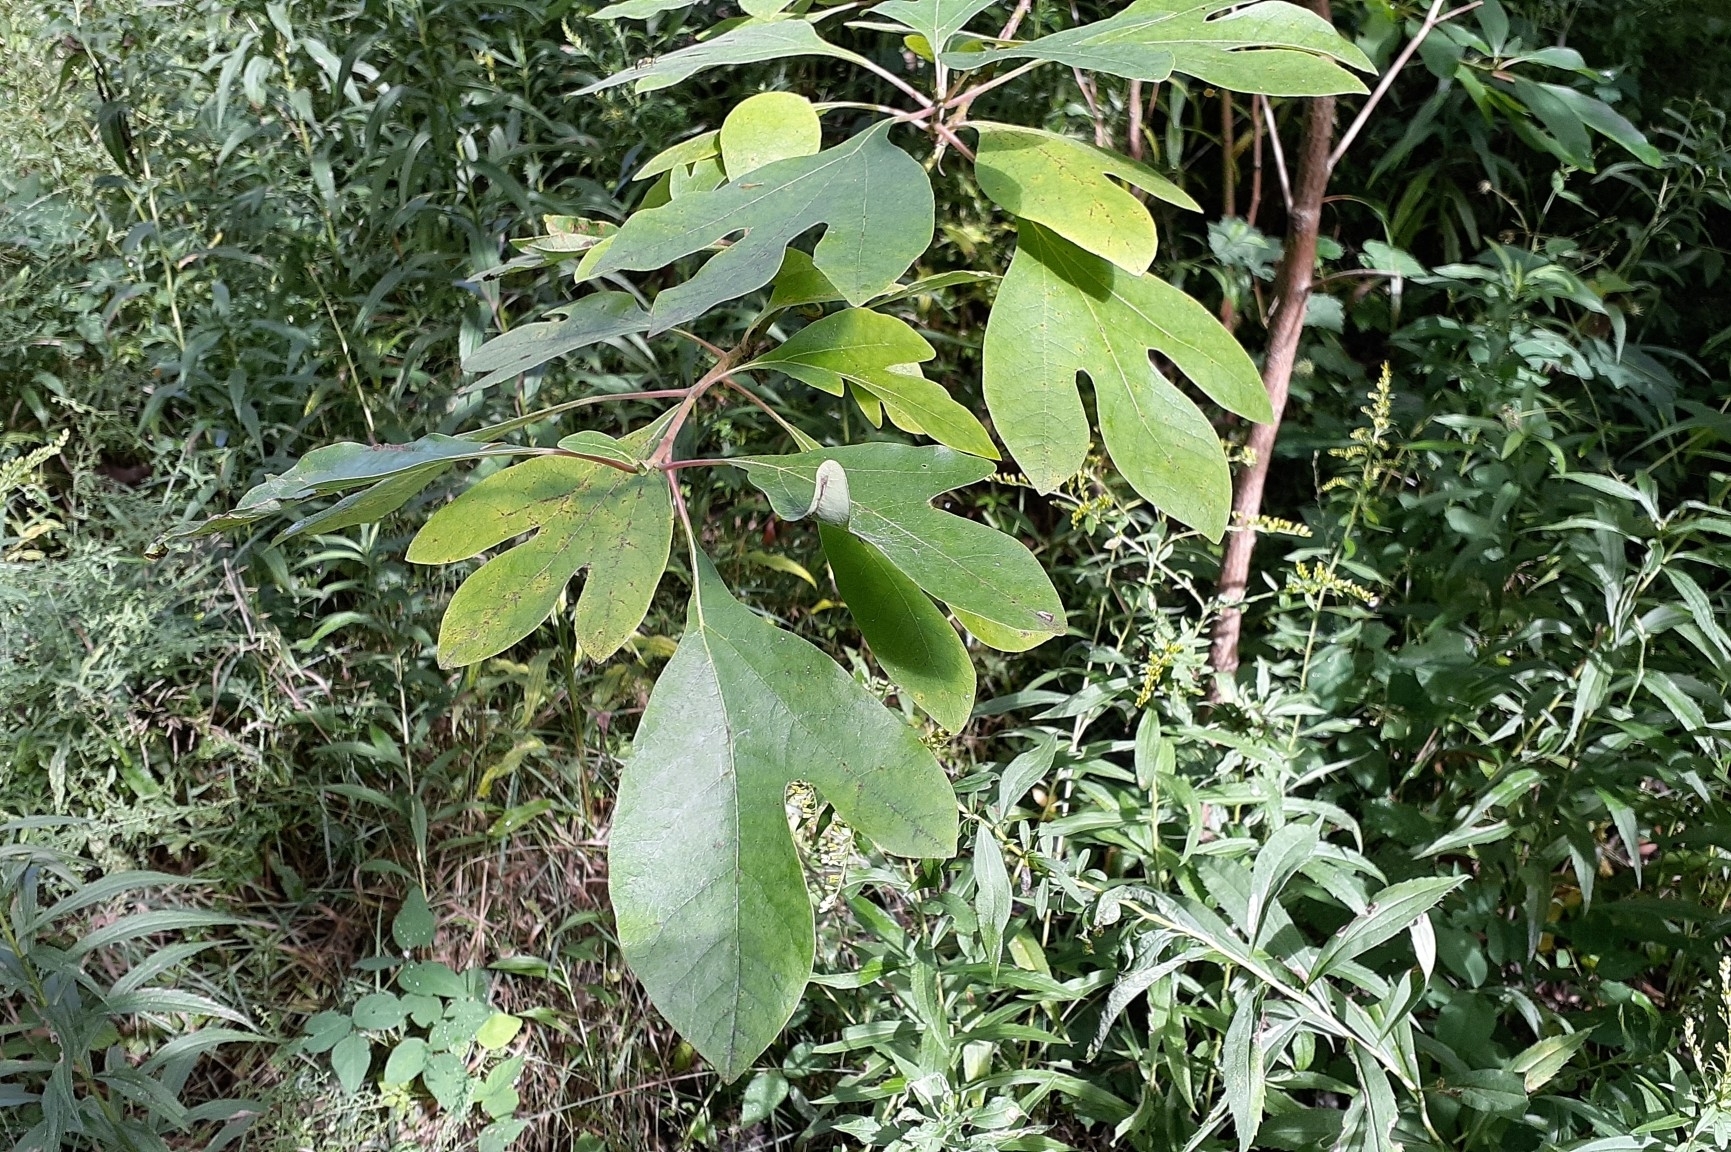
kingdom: Plantae
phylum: Tracheophyta
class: Magnoliopsida
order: Laurales
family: Lauraceae
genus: Sassafras
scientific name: Sassafras albidum
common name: Sassafras
